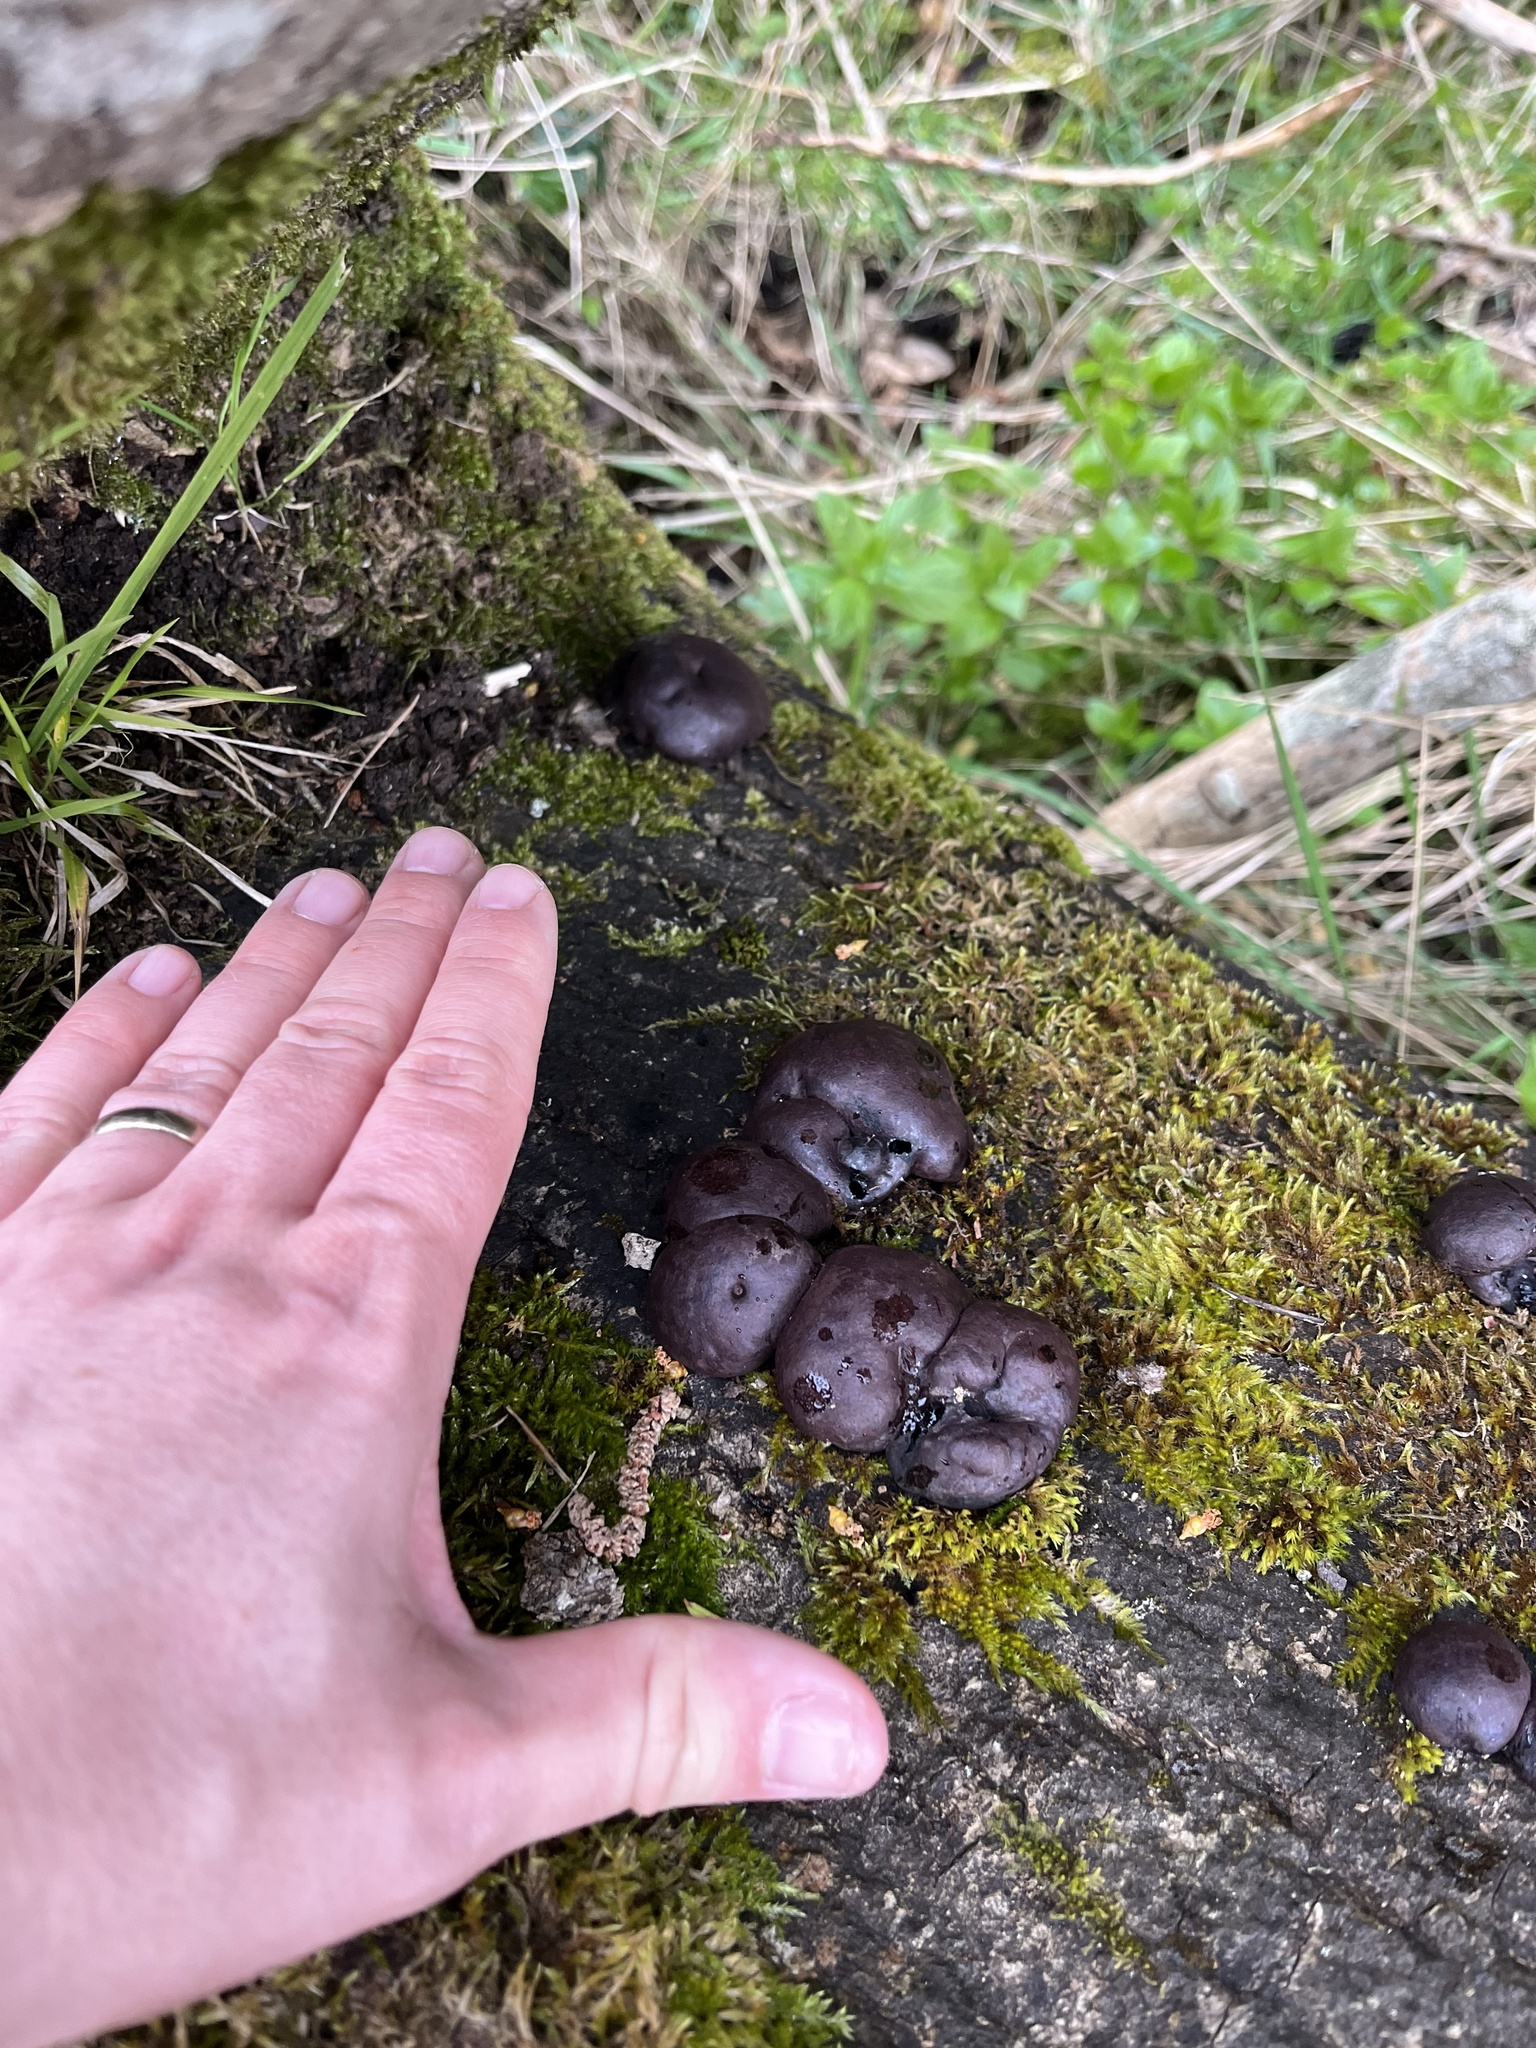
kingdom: Fungi
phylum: Ascomycota
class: Sordariomycetes
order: Xylariales
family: Hypoxylaceae
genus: Daldinia
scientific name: Daldinia concentrica
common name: Cramp balls
